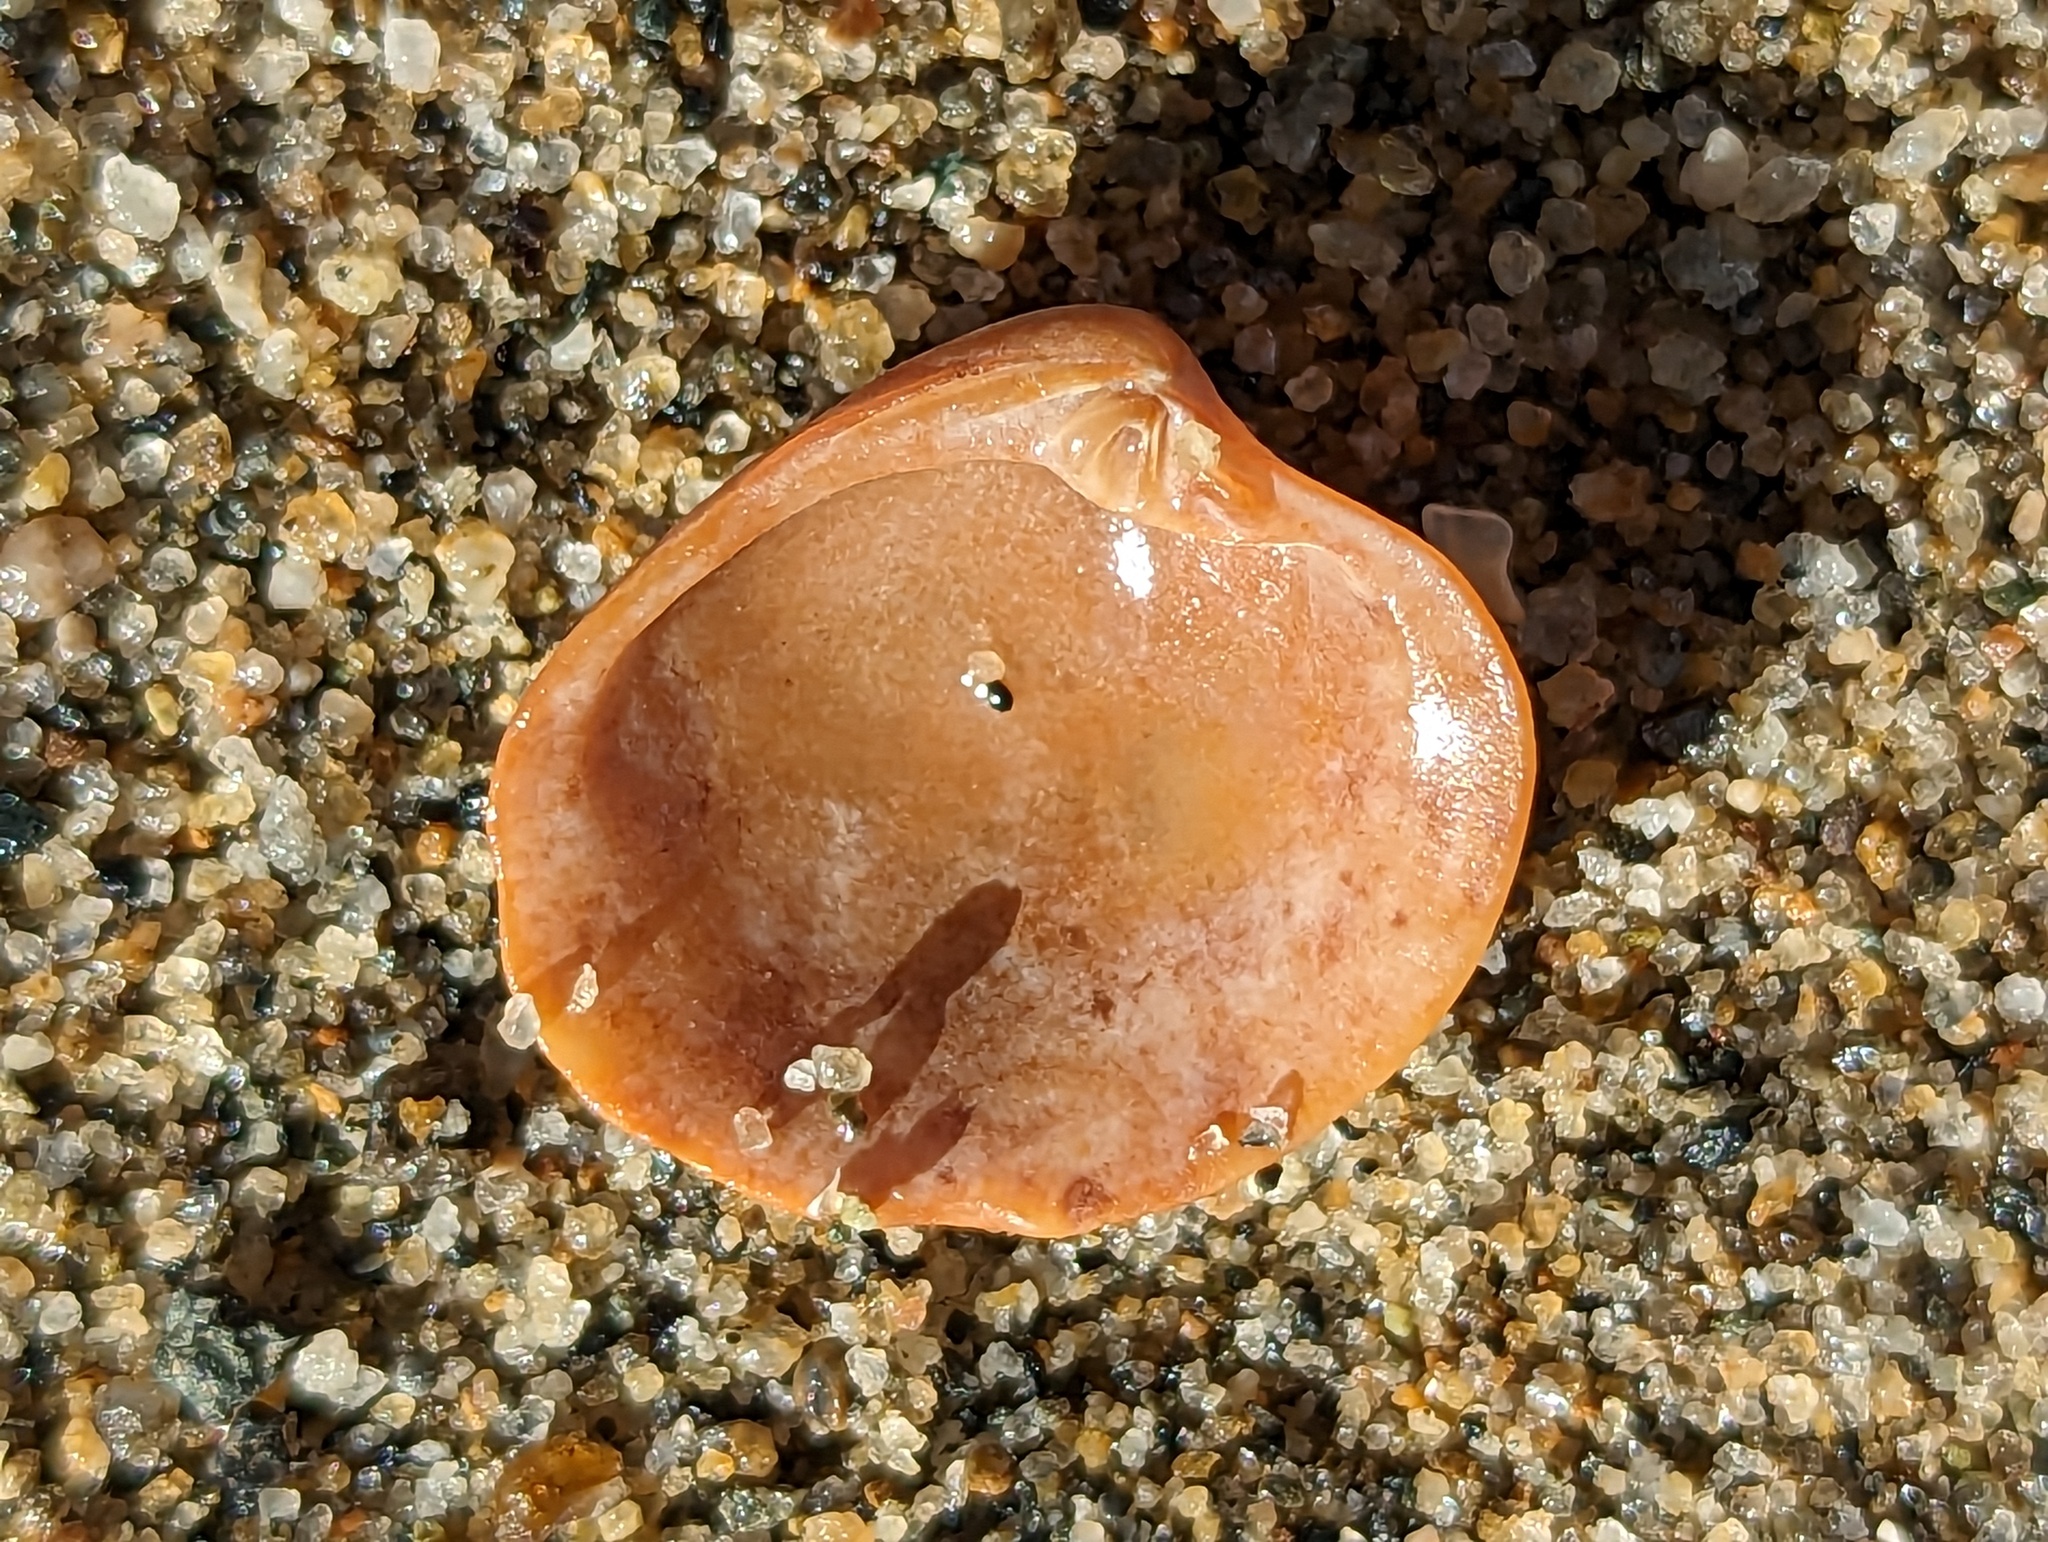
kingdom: Animalia
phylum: Mollusca
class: Bivalvia
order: Venerida
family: Veneridae
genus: Chionopsis
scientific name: Chionopsis intapurpurea
